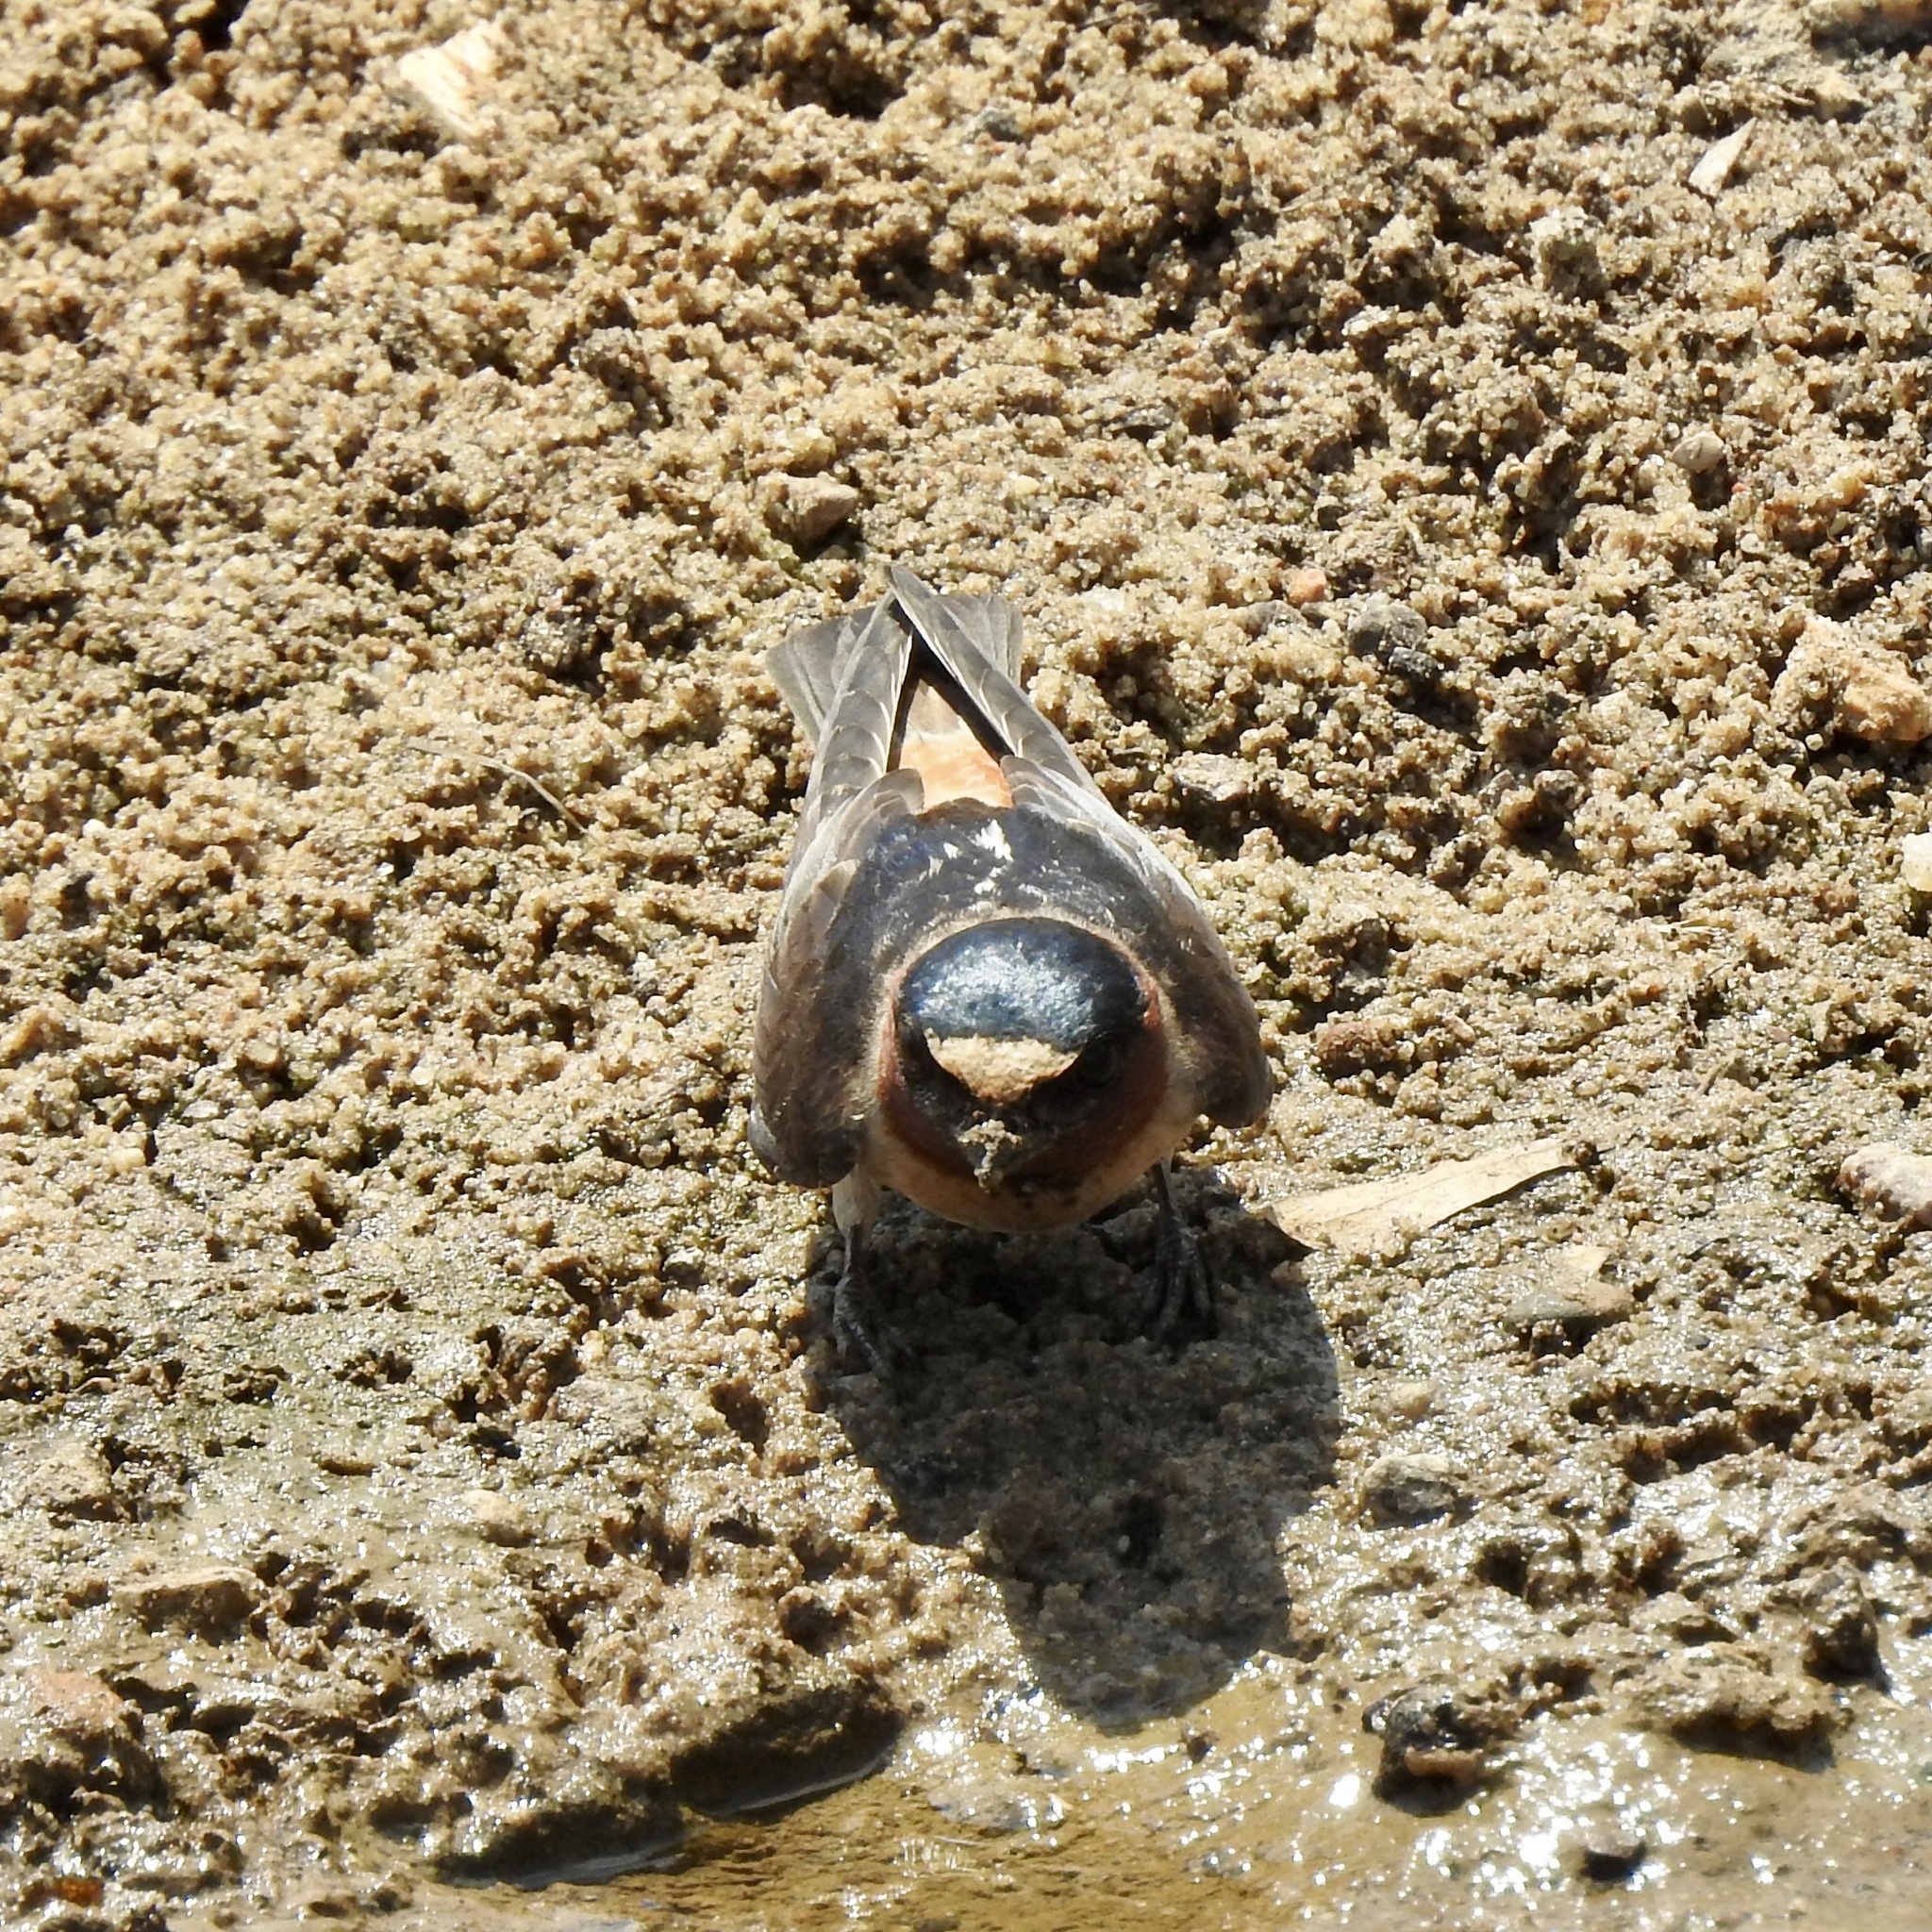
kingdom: Animalia
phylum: Chordata
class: Aves
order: Passeriformes
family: Hirundinidae
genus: Petrochelidon
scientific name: Petrochelidon pyrrhonota
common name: American cliff swallow
